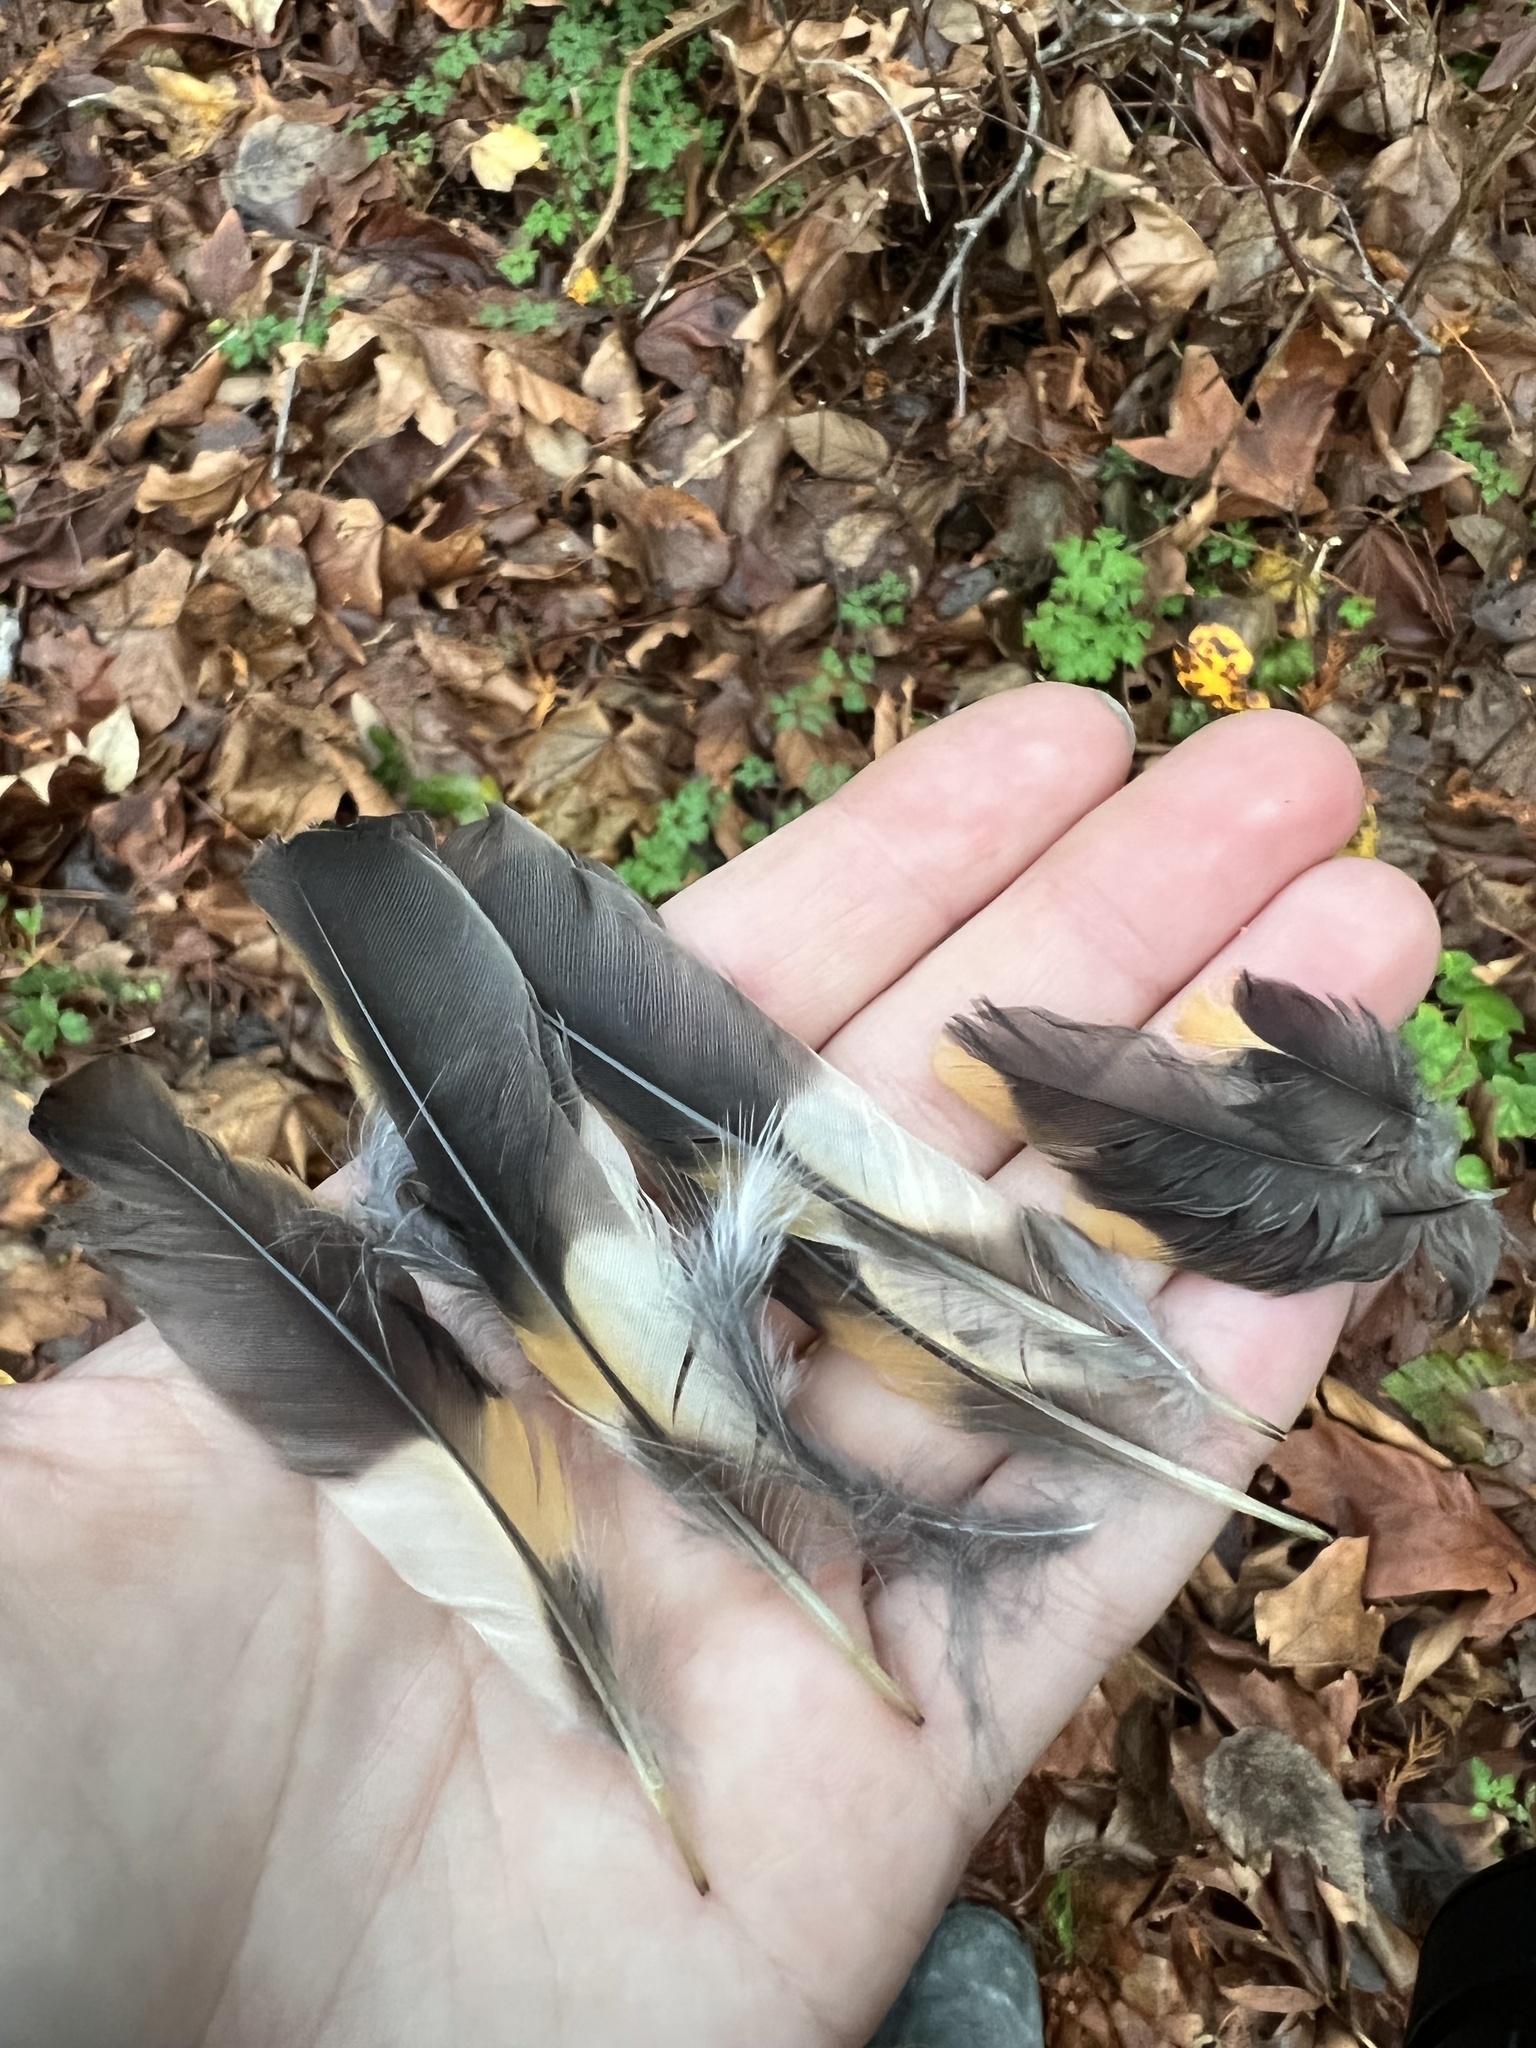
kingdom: Animalia
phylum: Chordata
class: Aves
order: Passeriformes
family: Turdidae
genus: Ixoreus
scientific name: Ixoreus naevius
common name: Varied thrush
